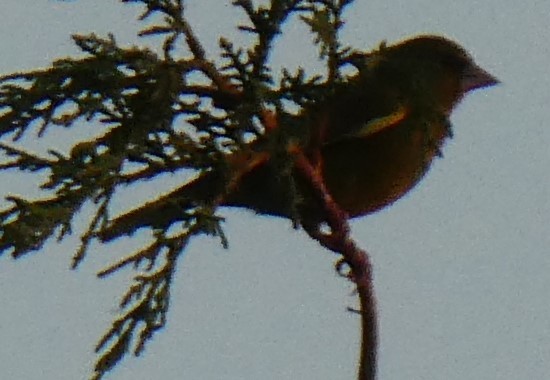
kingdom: Plantae
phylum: Tracheophyta
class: Liliopsida
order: Poales
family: Poaceae
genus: Chloris
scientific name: Chloris chloris
